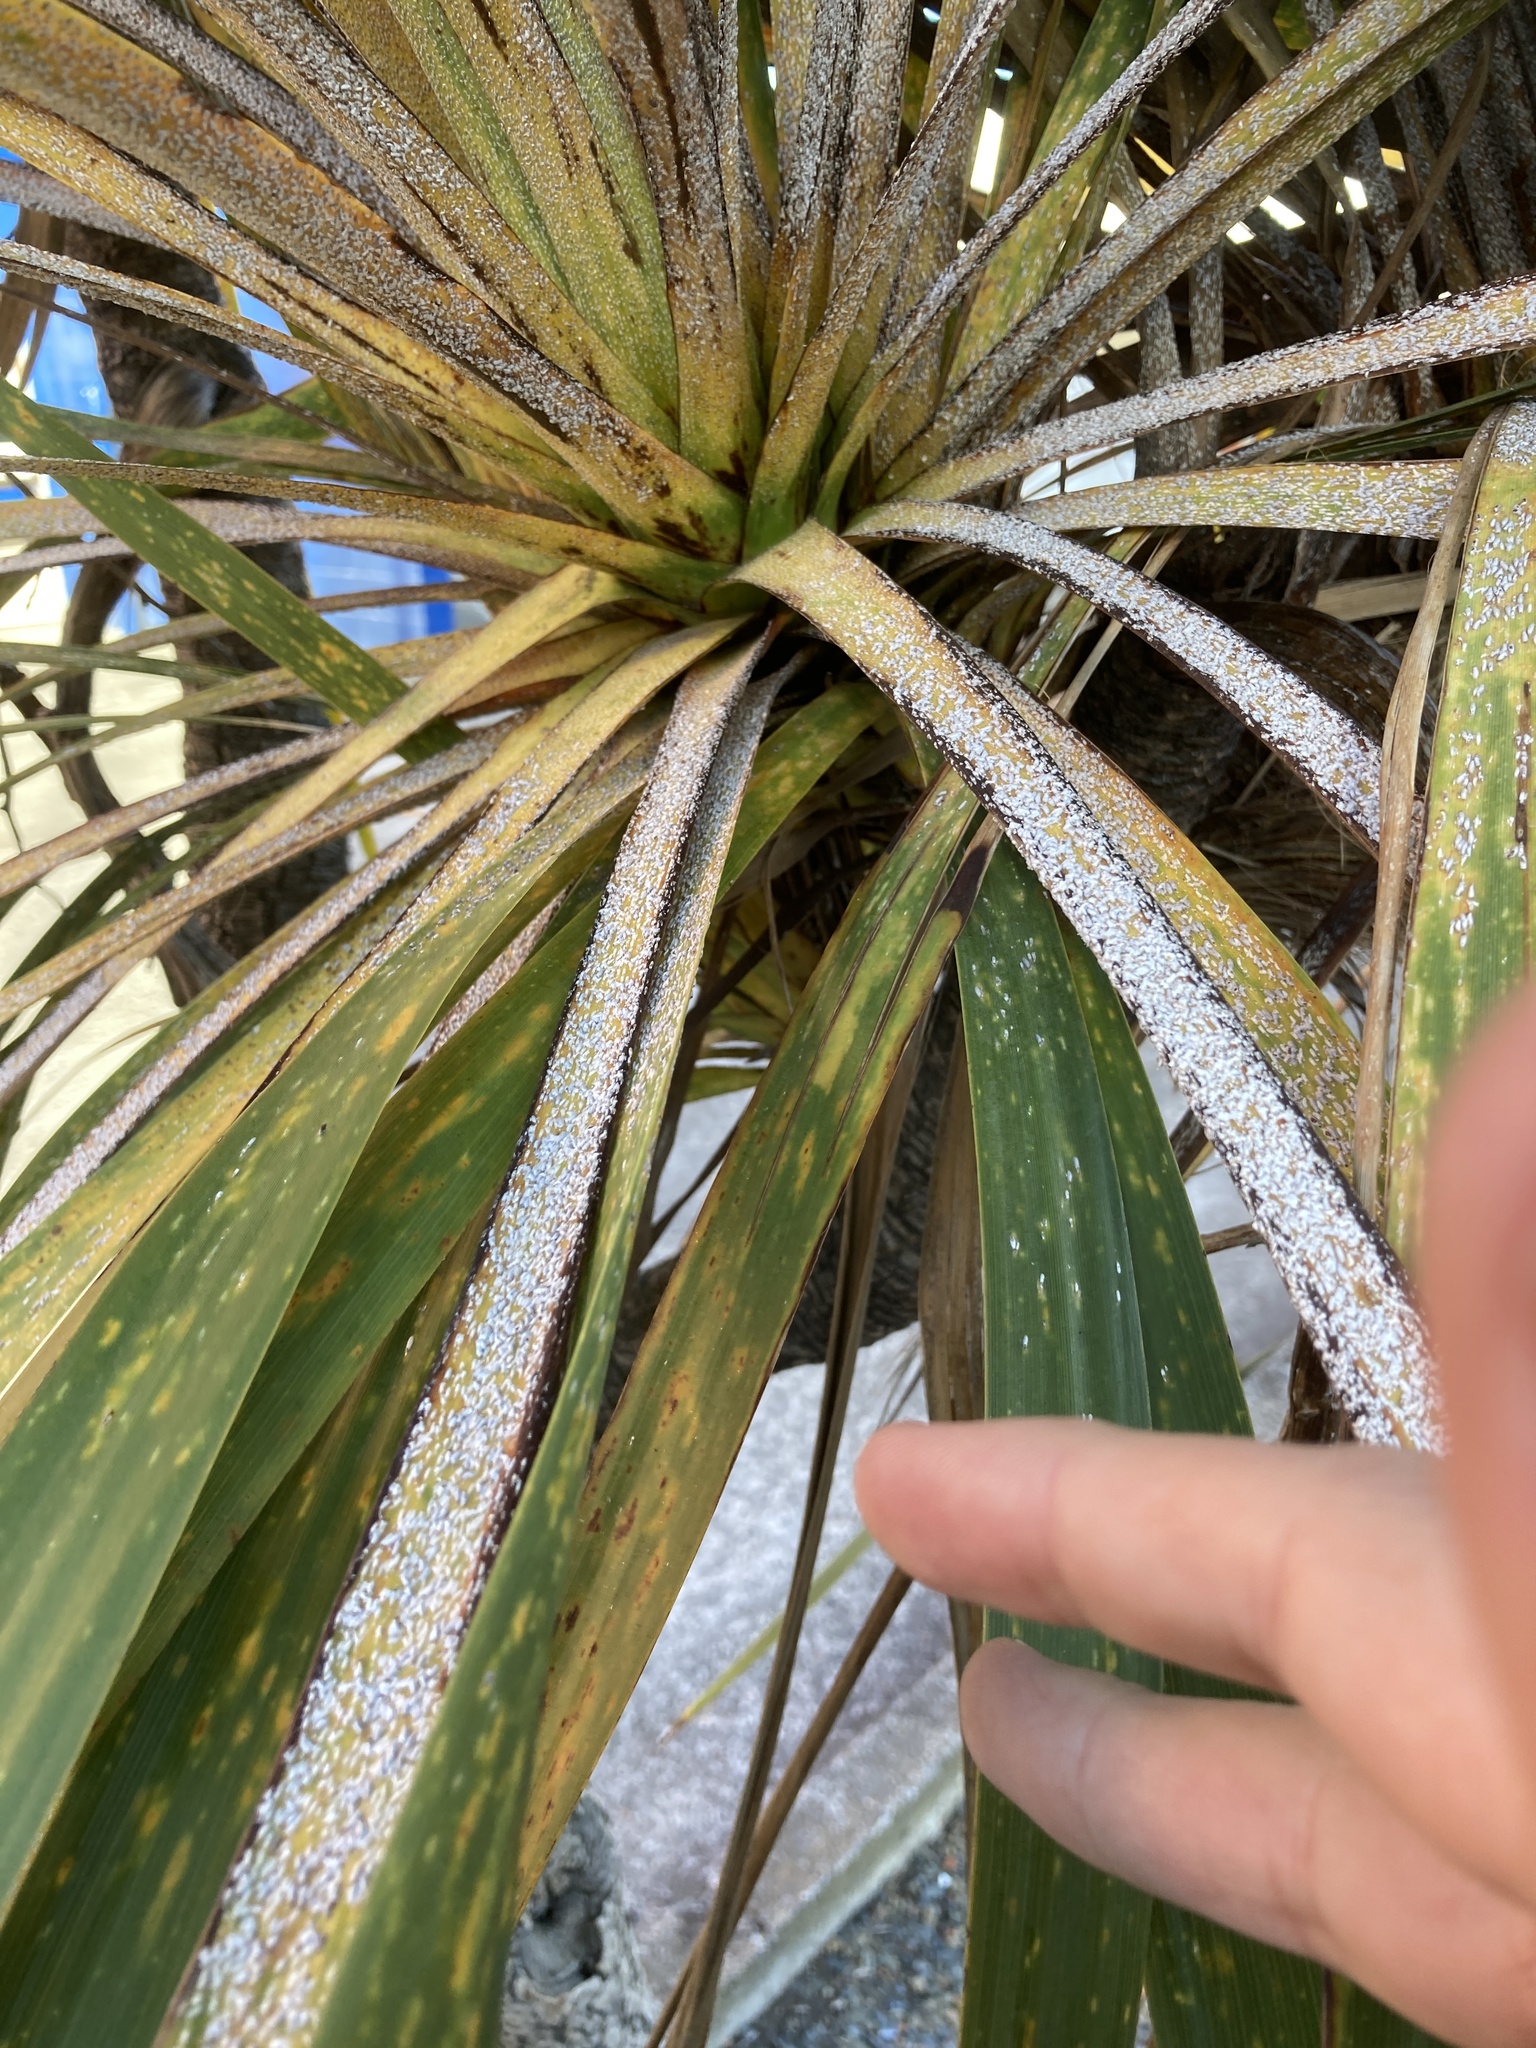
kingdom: Animalia
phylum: Arthropoda
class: Insecta
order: Hemiptera
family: Diaspididae
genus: Leucaspis
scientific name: Leucaspis cordylinidis
